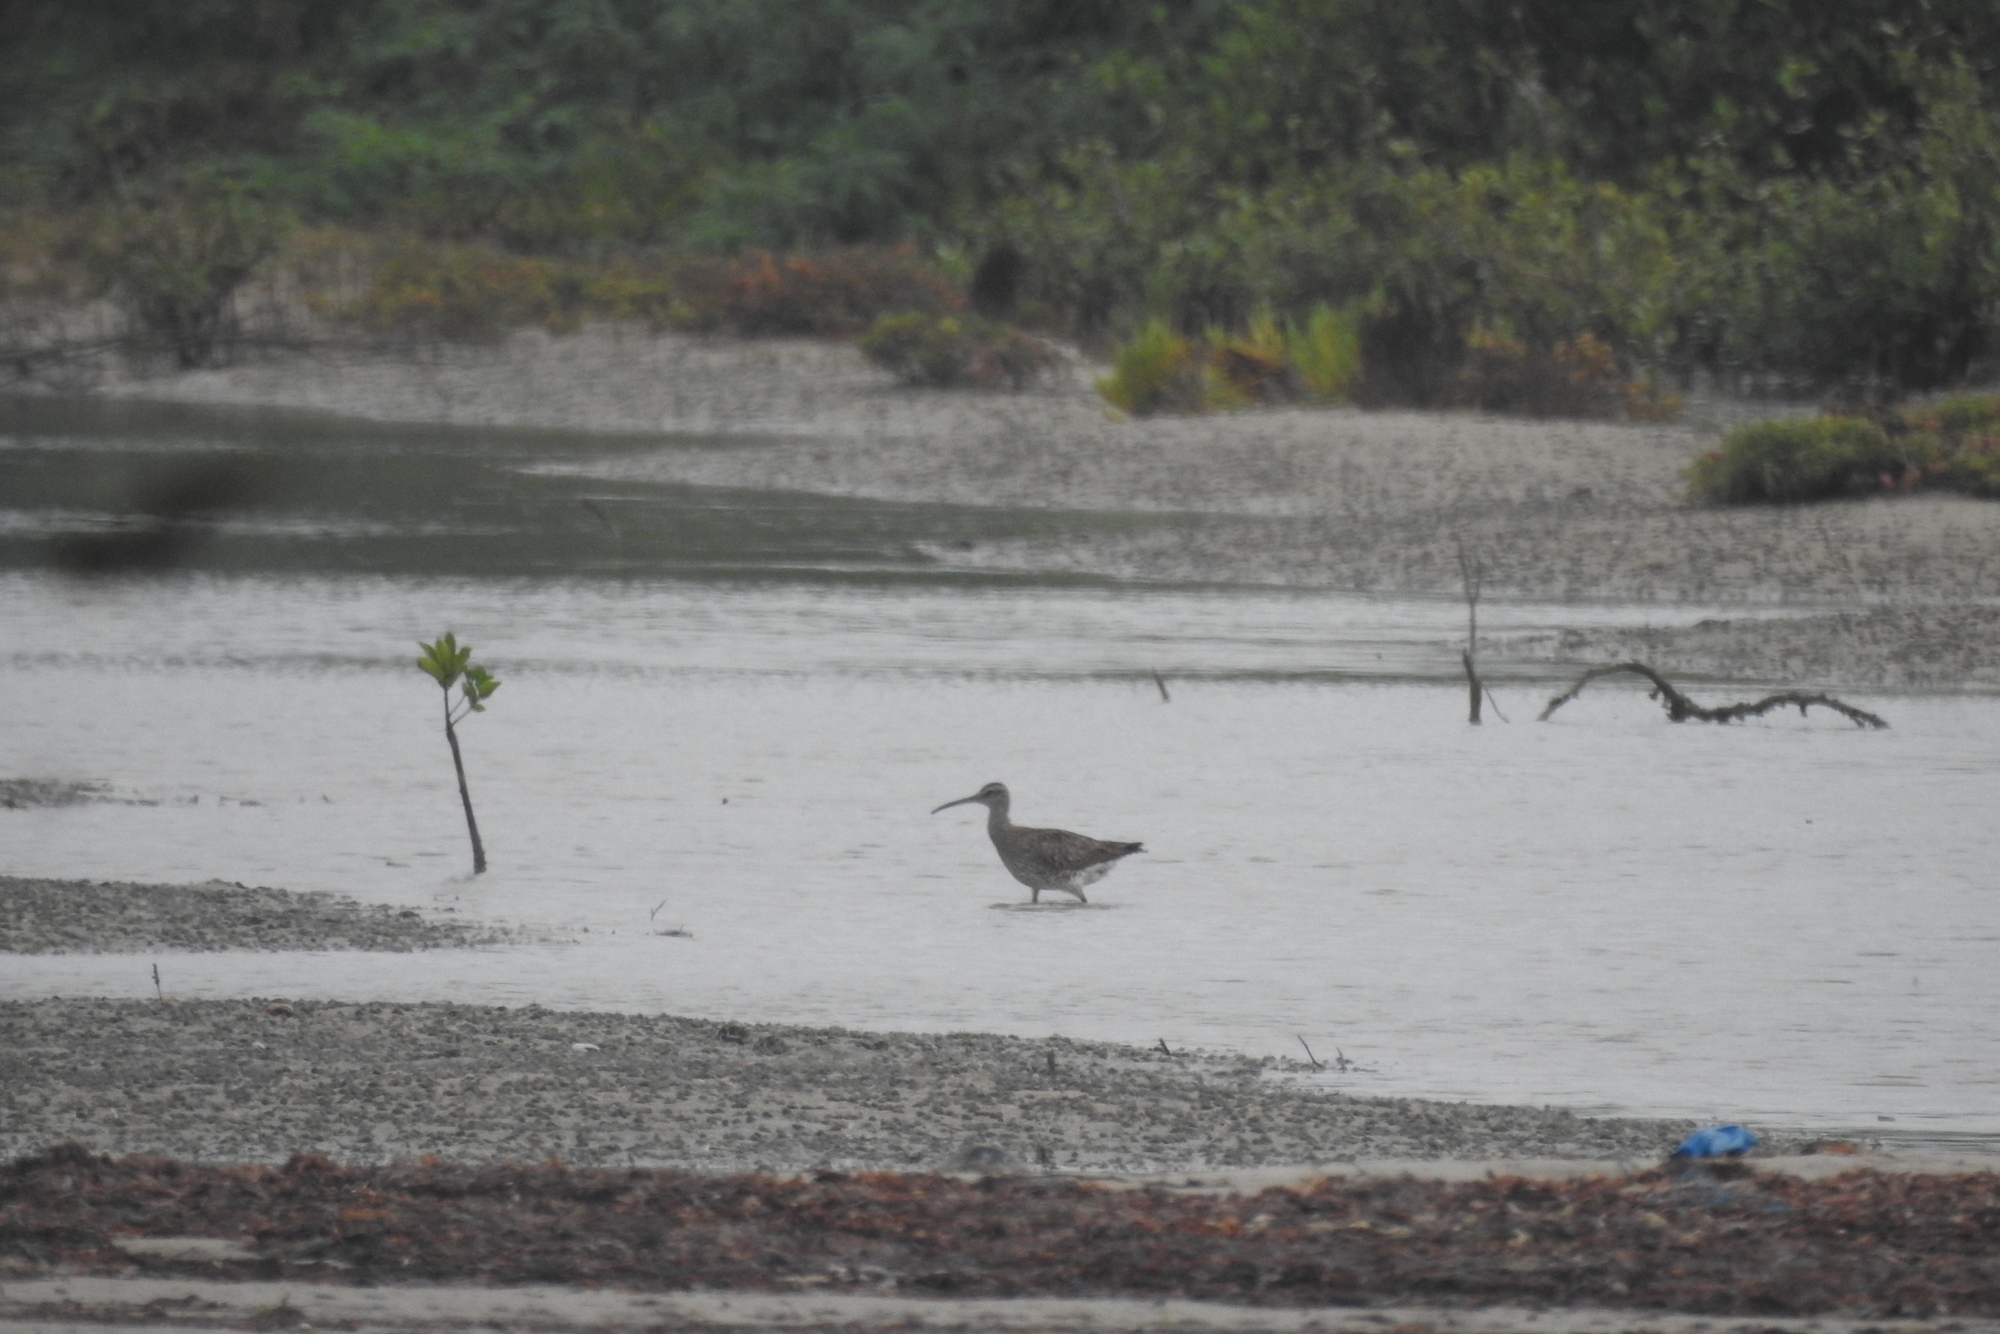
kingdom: Animalia
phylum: Chordata
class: Aves
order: Charadriiformes
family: Scolopacidae
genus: Numenius
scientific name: Numenius phaeopus
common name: Whimbrel
